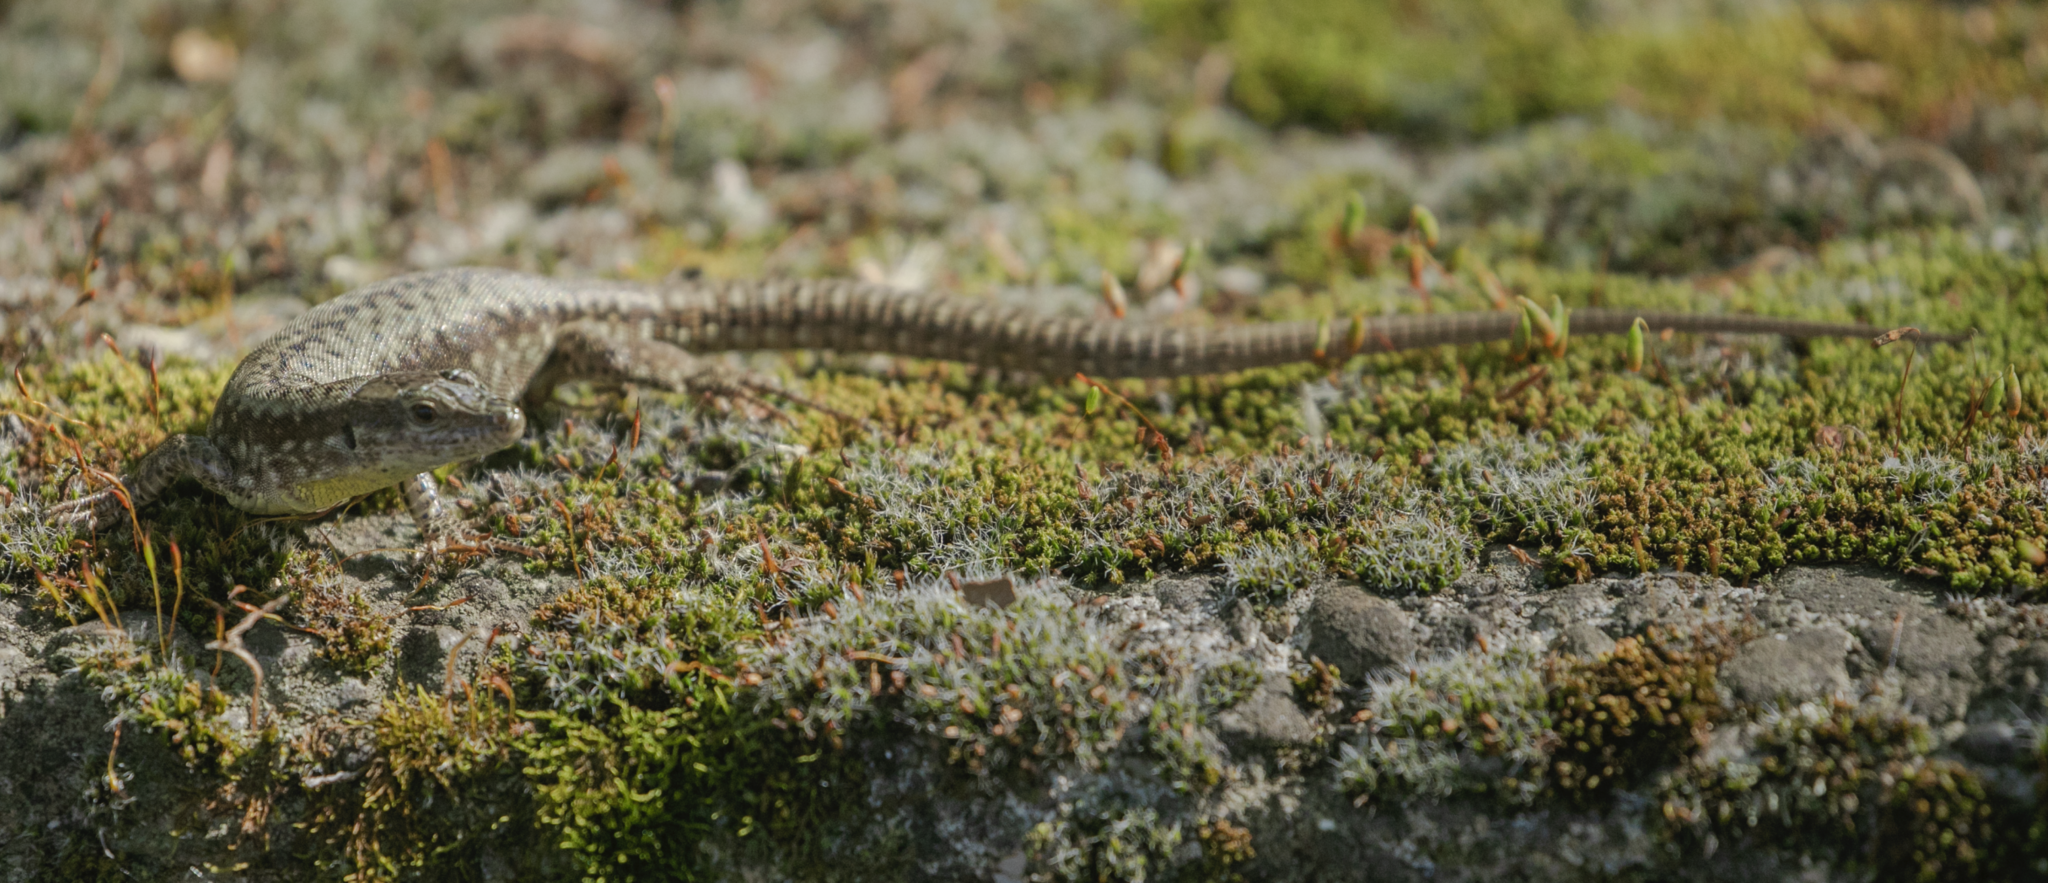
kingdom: Animalia
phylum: Chordata
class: Squamata
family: Lacertidae
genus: Podarcis
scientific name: Podarcis muralis
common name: Common wall lizard
